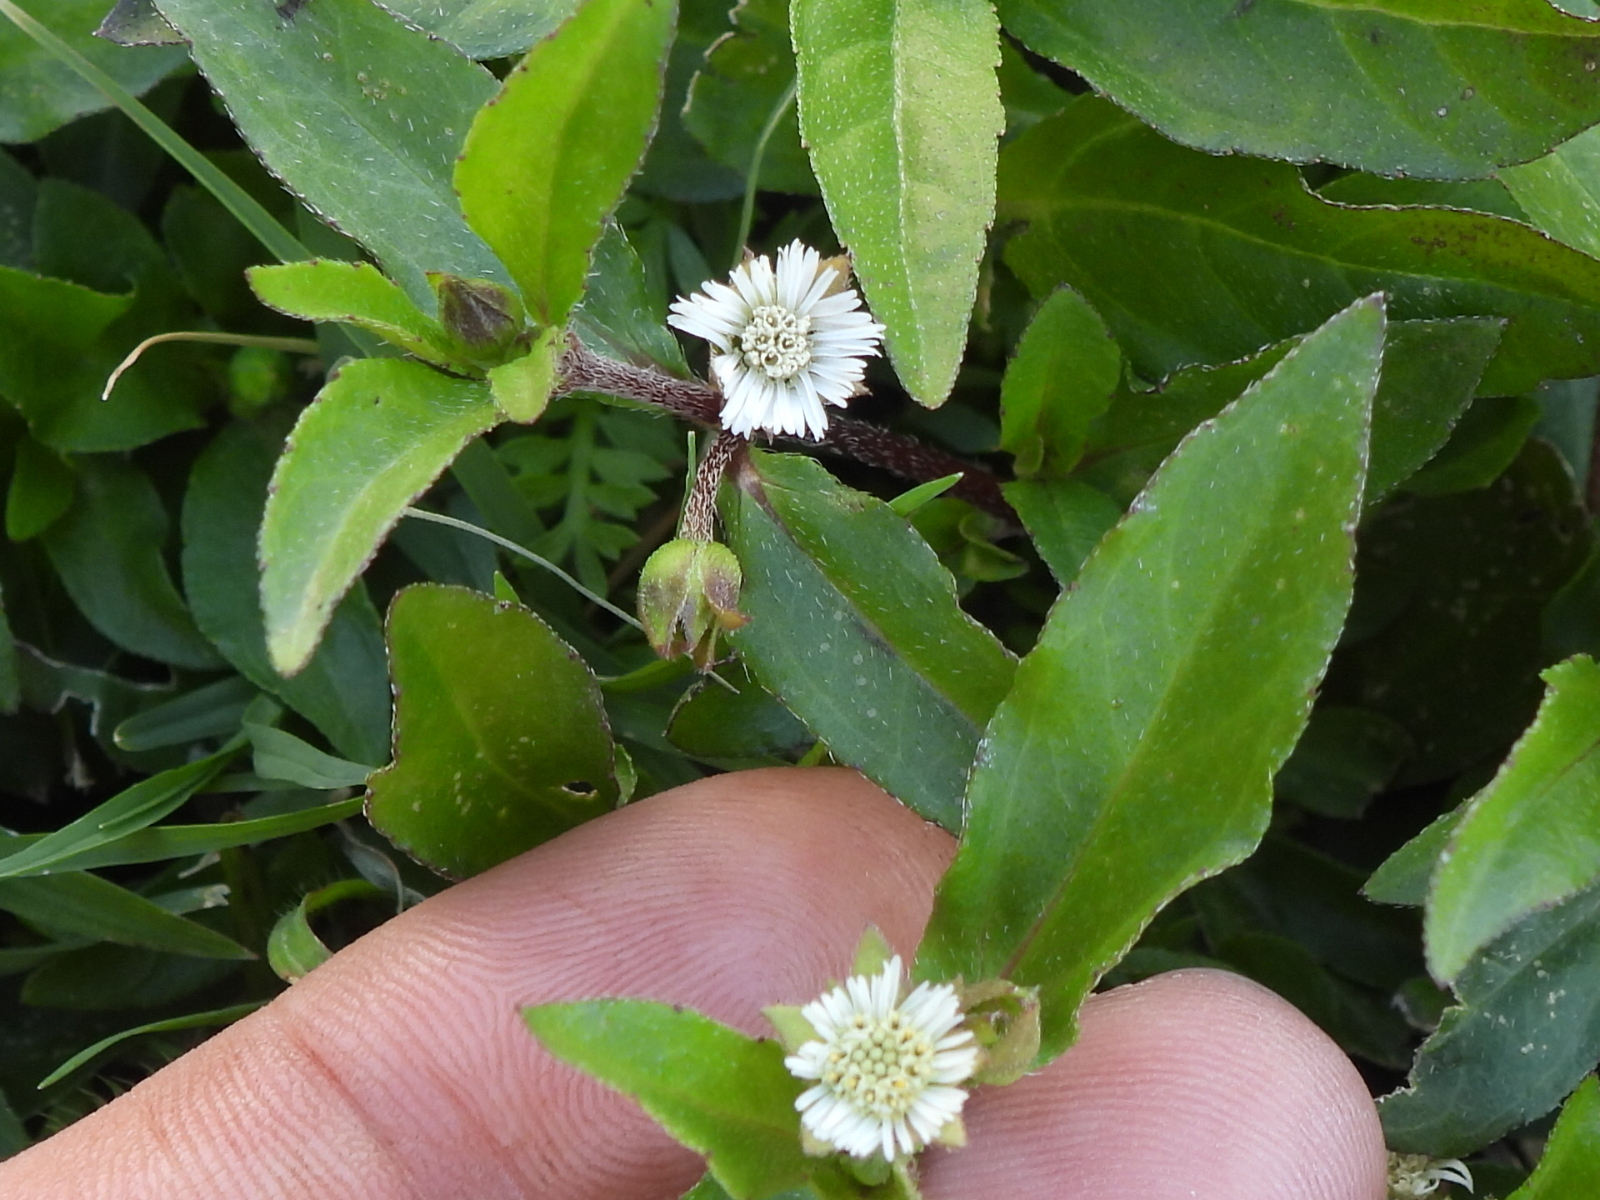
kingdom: Plantae
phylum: Tracheophyta
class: Magnoliopsida
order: Asterales
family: Asteraceae
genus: Eclipta
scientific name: Eclipta prostrata
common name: False daisy
